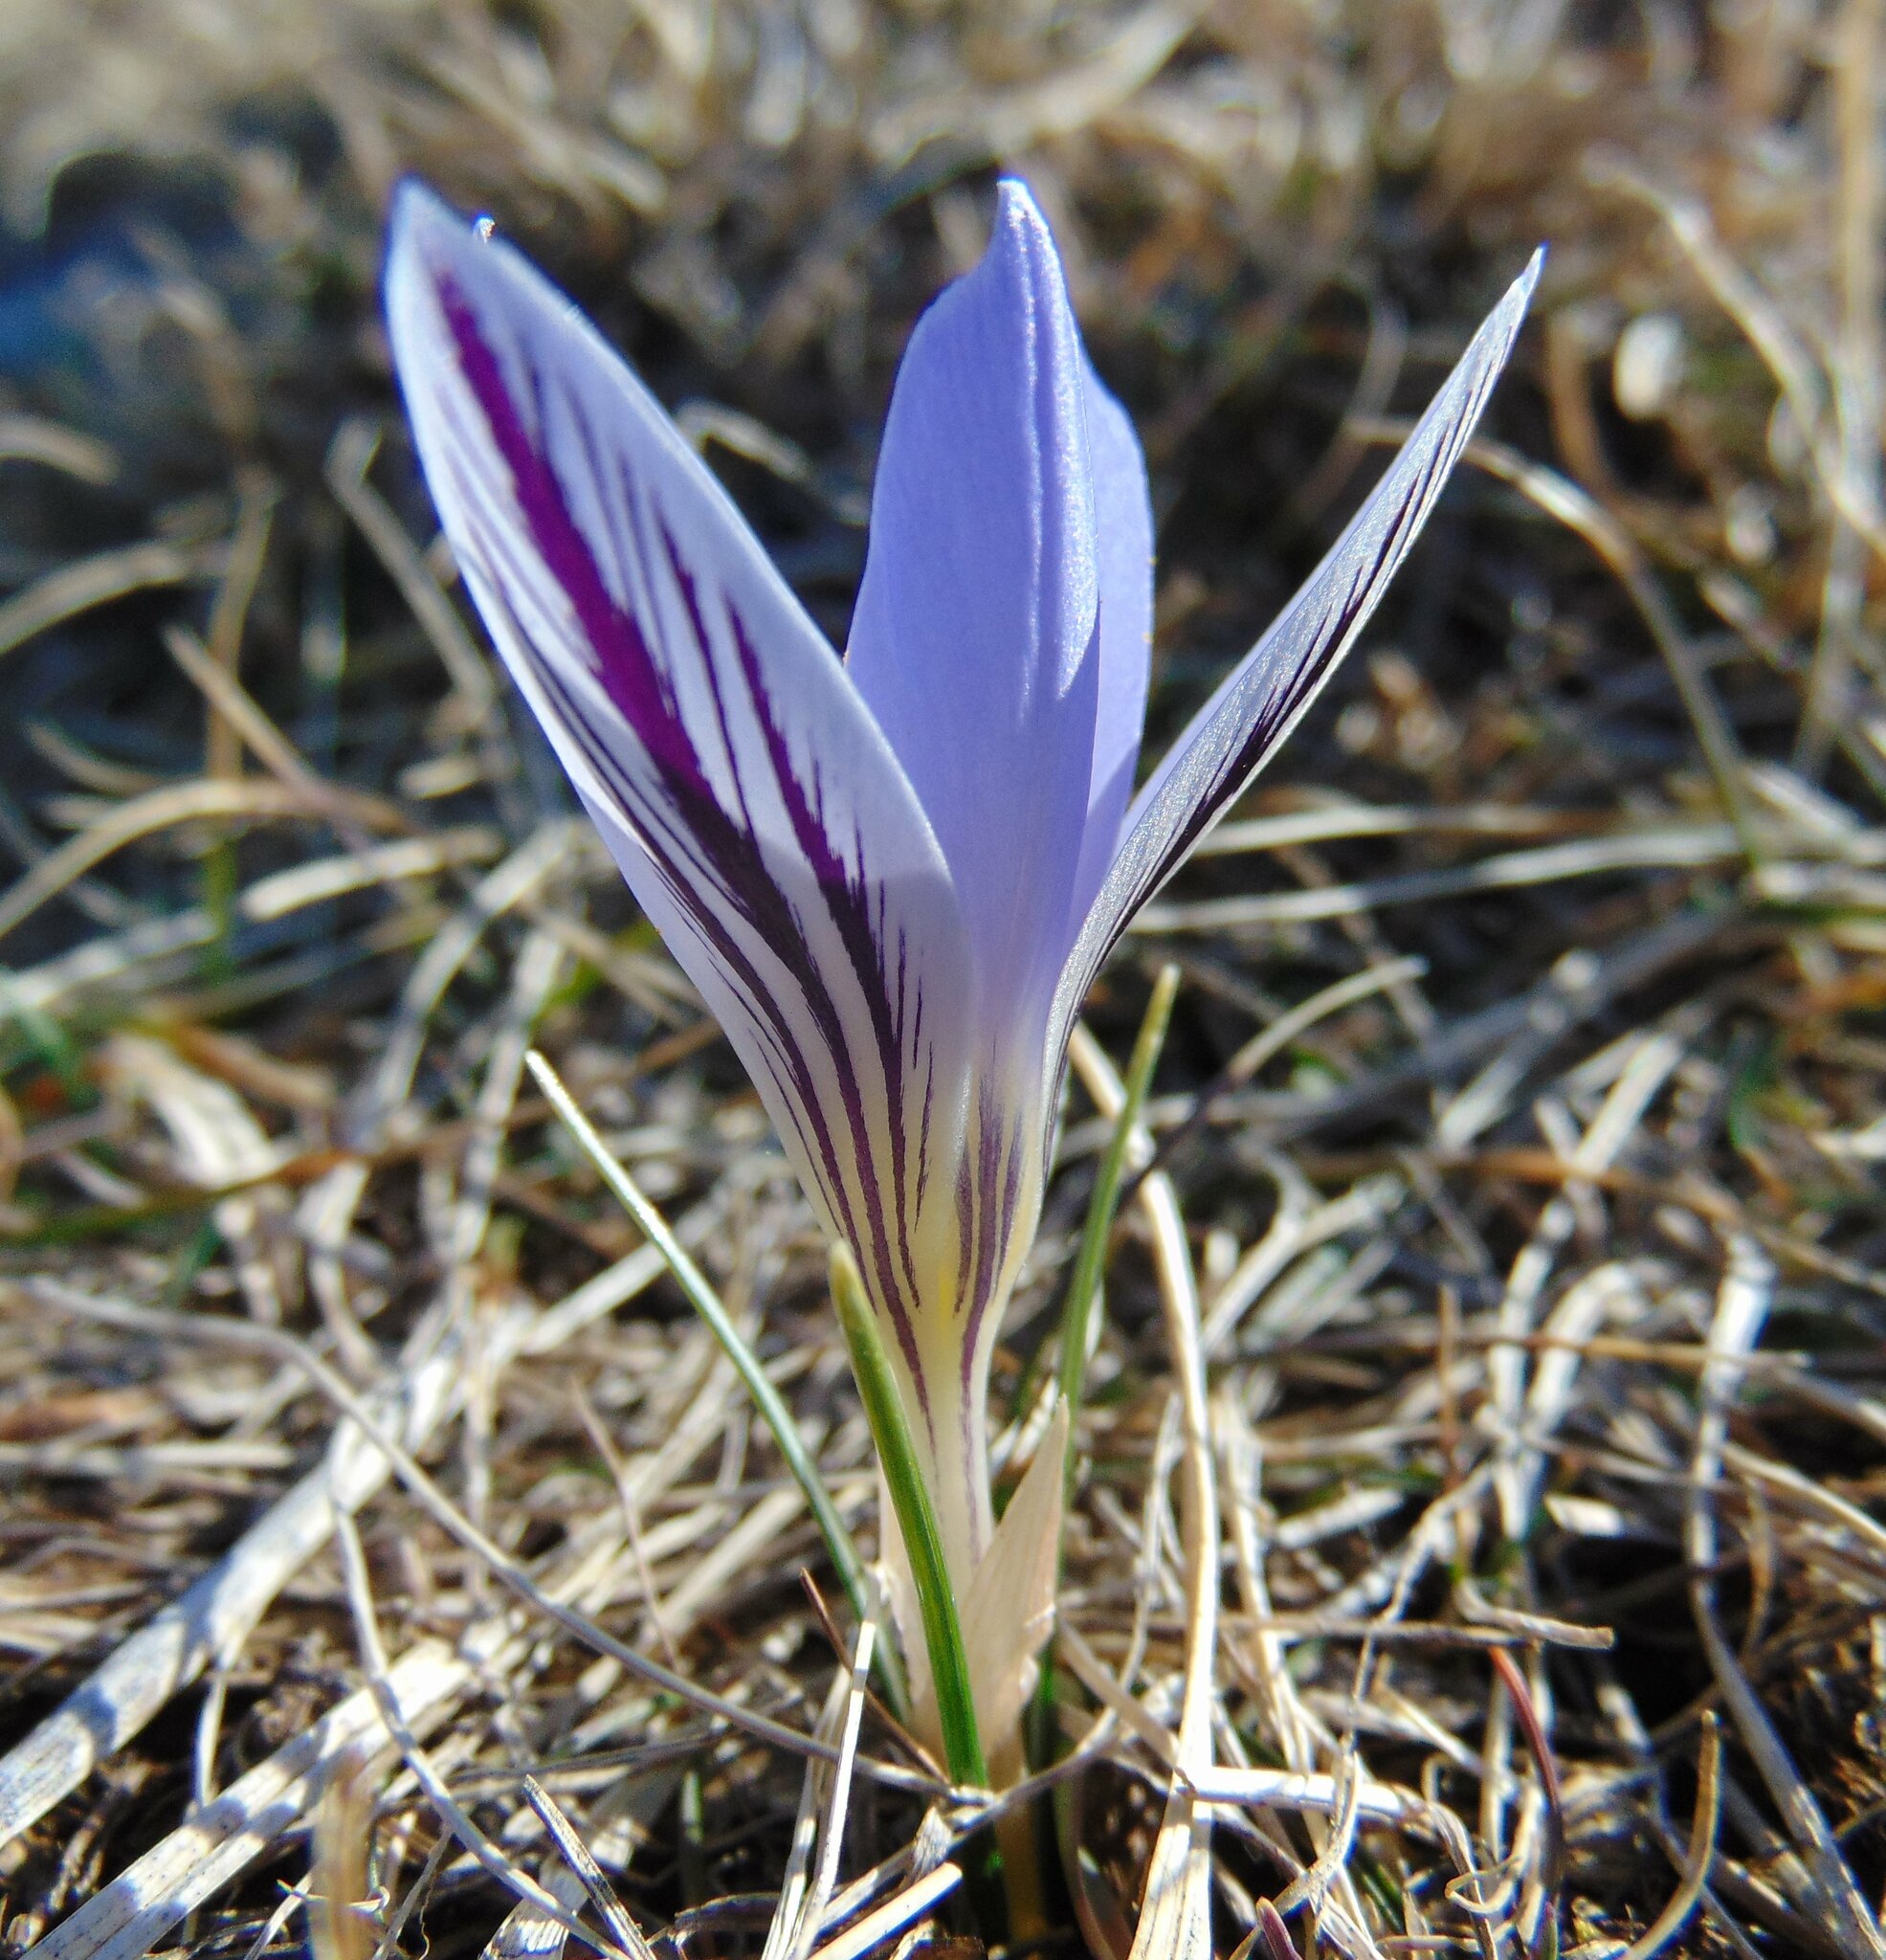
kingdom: Plantae
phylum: Tracheophyta
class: Liliopsida
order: Asparagales
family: Iridaceae
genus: Crocus
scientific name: Crocus variegatus
